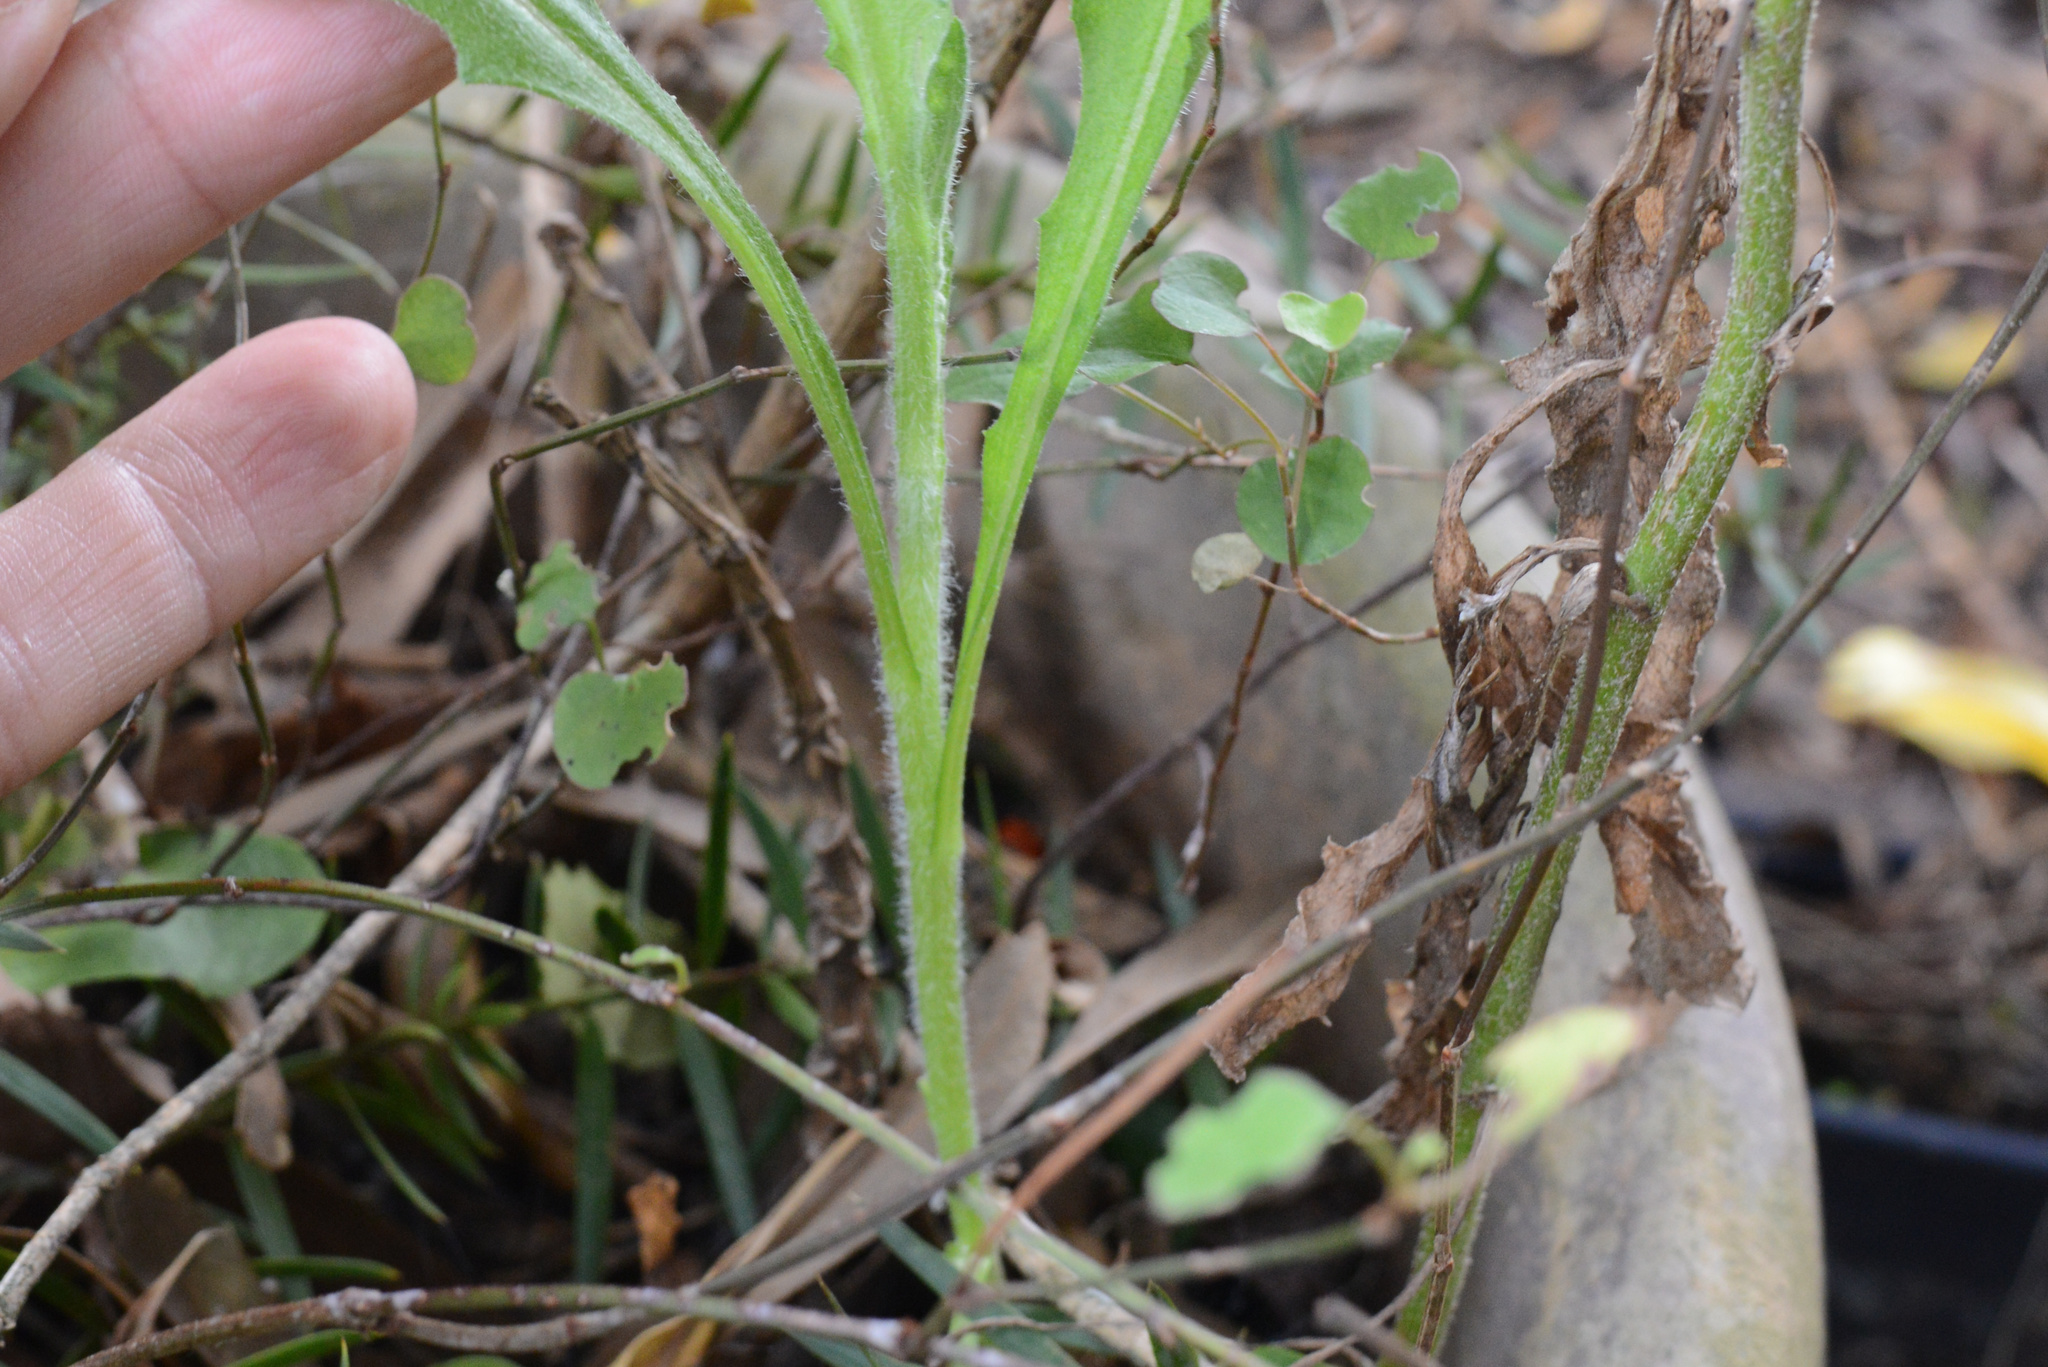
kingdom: Plantae
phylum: Tracheophyta
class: Magnoliopsida
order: Caryophyllales
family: Polygonaceae
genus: Muehlenbeckia
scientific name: Muehlenbeckia australis
